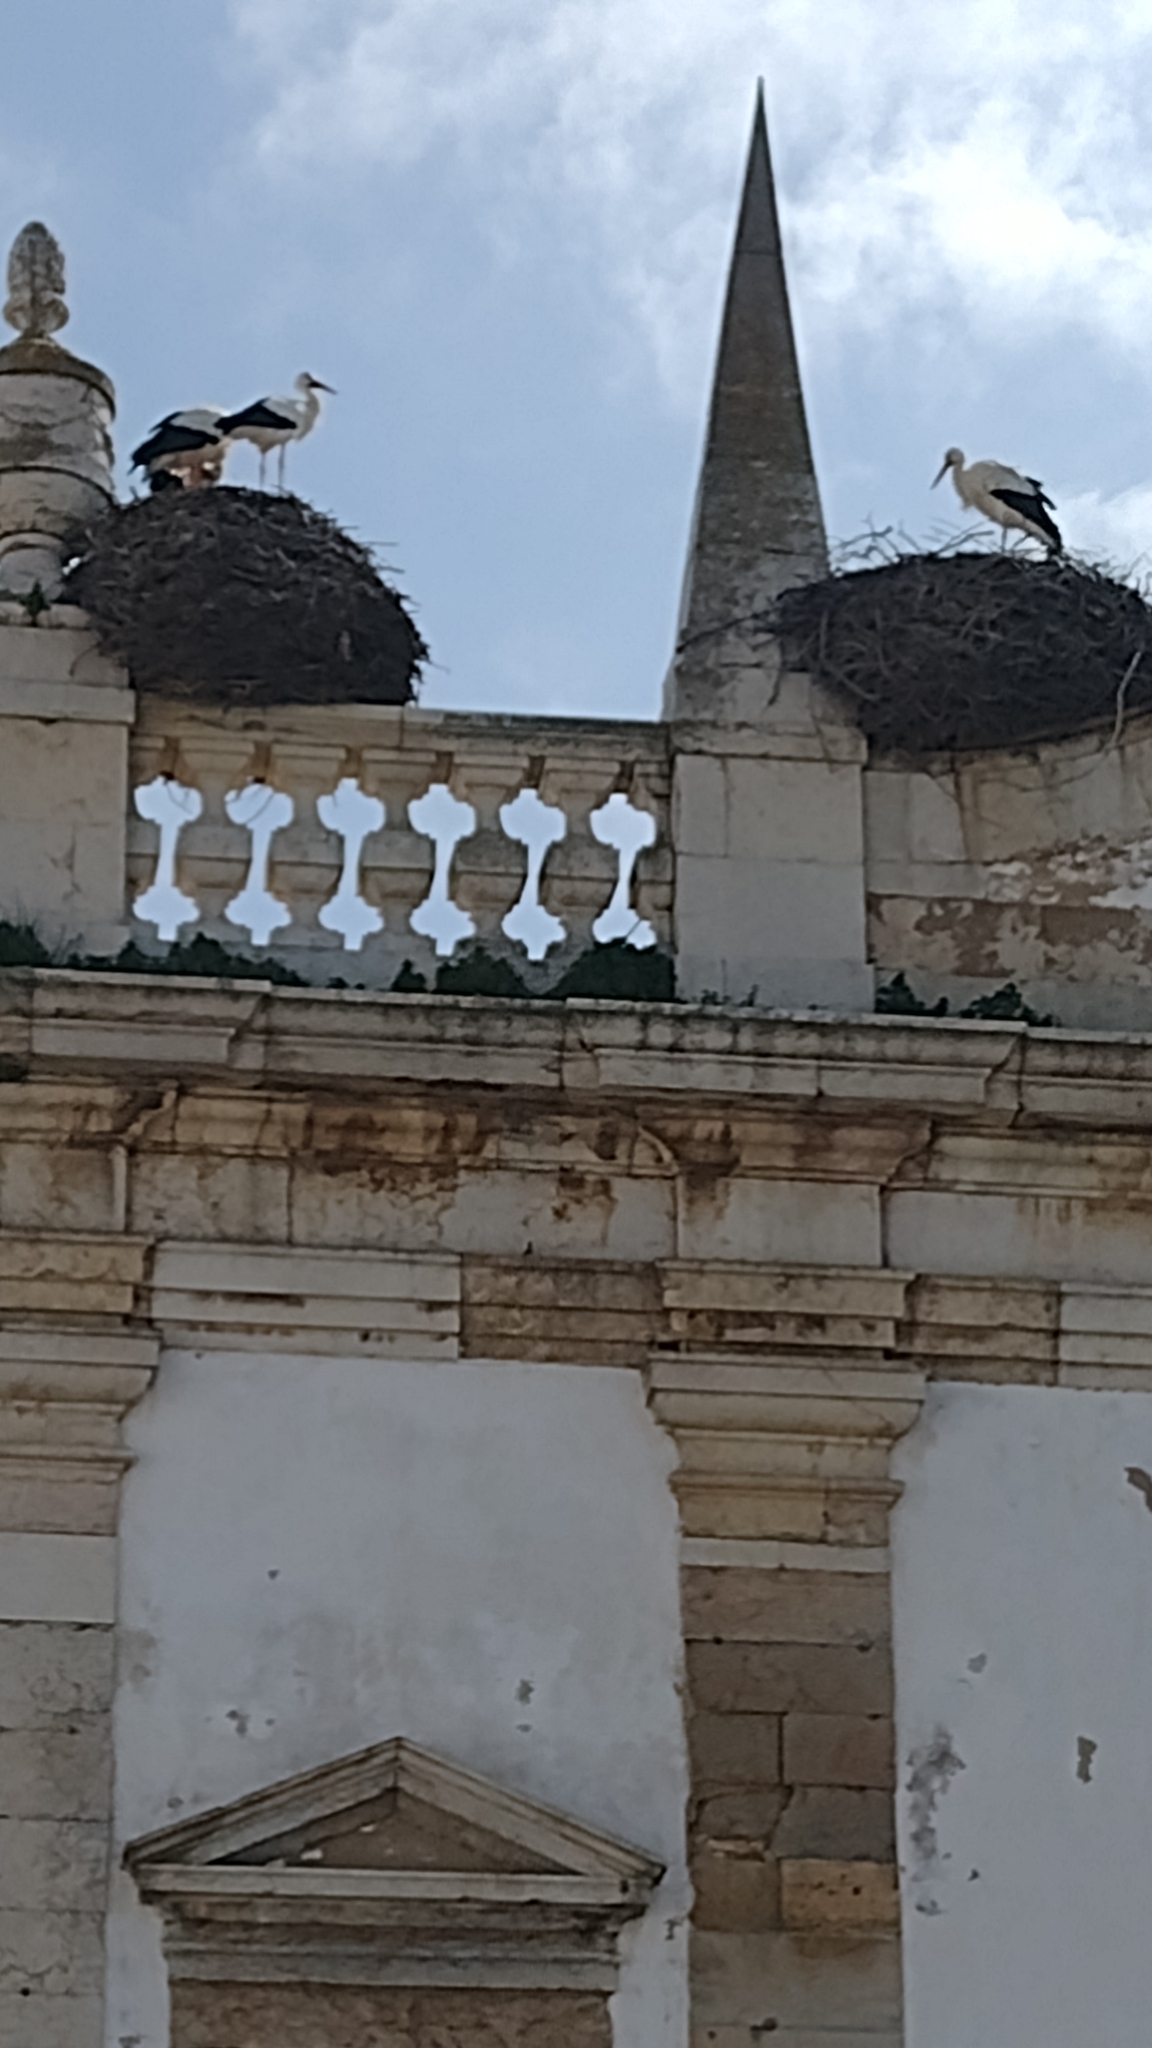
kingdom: Animalia
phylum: Chordata
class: Aves
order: Ciconiiformes
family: Ciconiidae
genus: Ciconia
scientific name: Ciconia ciconia
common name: White stork
